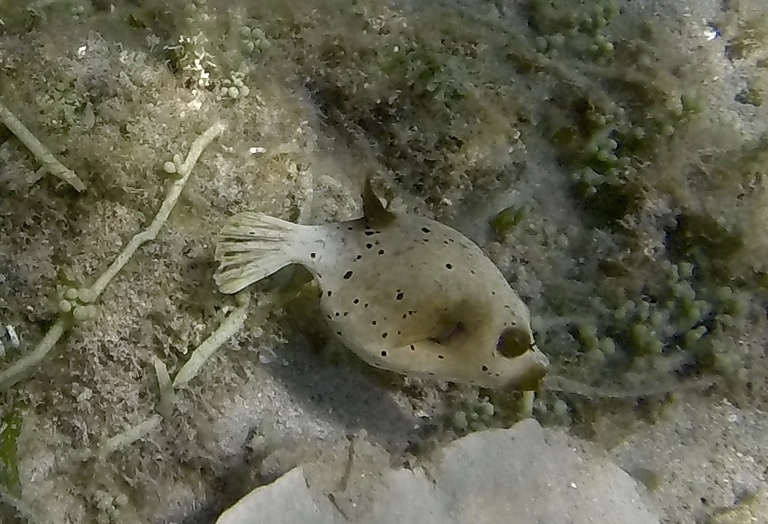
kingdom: Animalia
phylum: Chordata
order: Tetraodontiformes
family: Tetraodontidae
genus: Arothron
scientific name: Arothron nigropunctatus
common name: Black spotted blow fish
